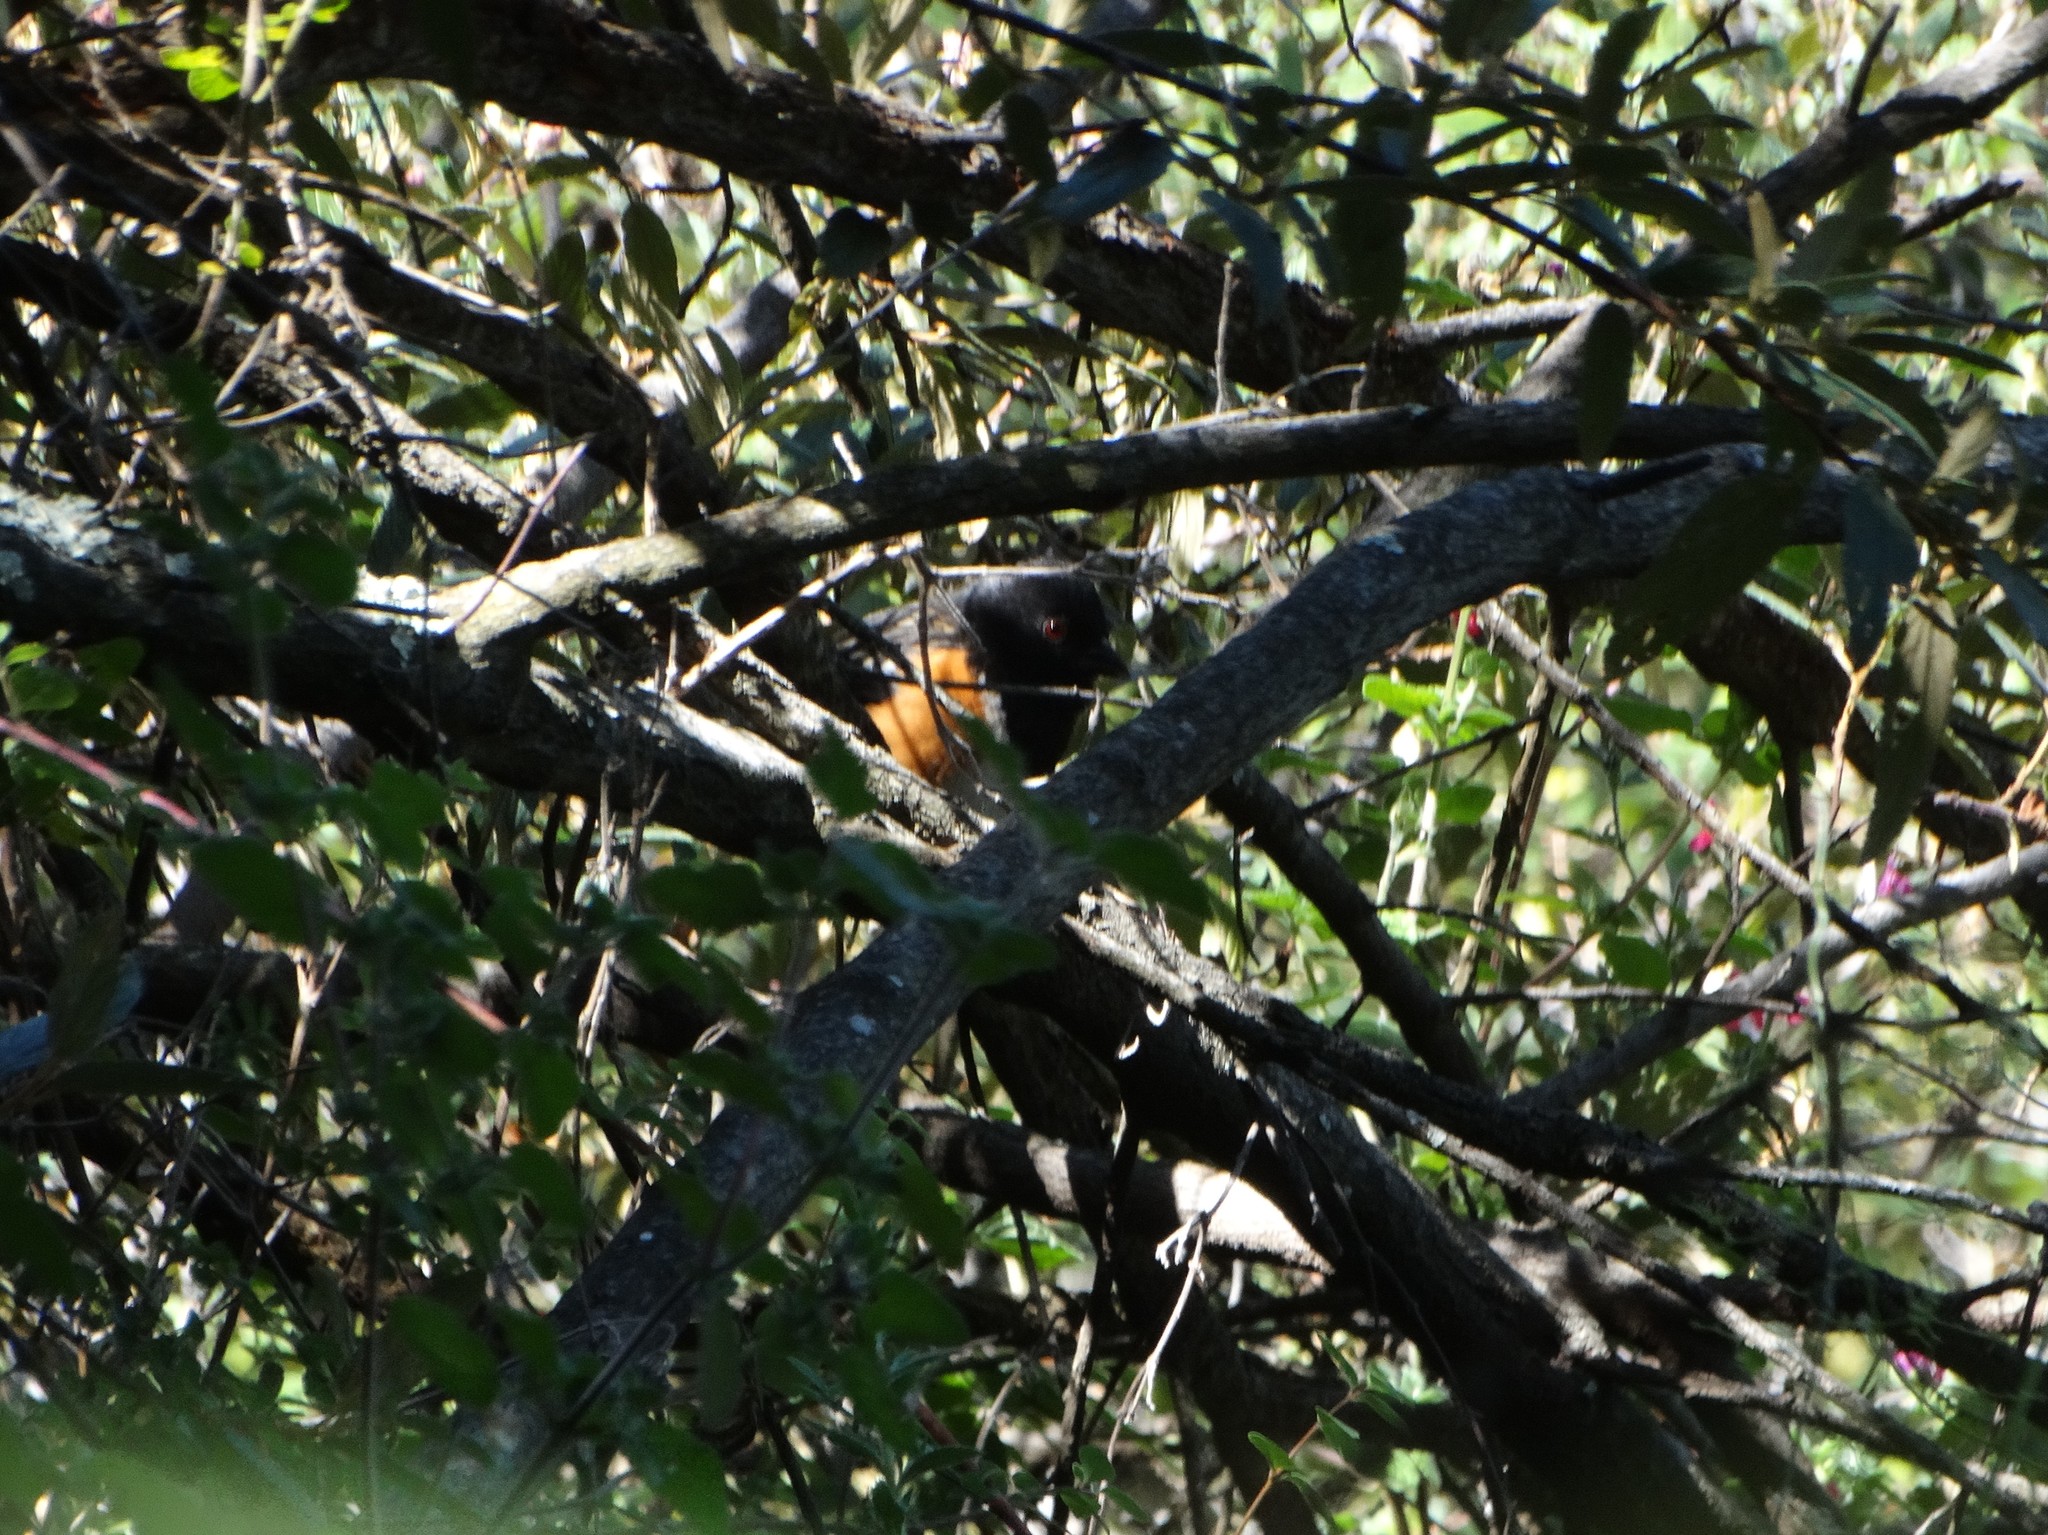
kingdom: Animalia
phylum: Chordata
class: Aves
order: Passeriformes
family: Passerellidae
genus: Pipilo
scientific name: Pipilo maculatus
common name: Spotted towhee
